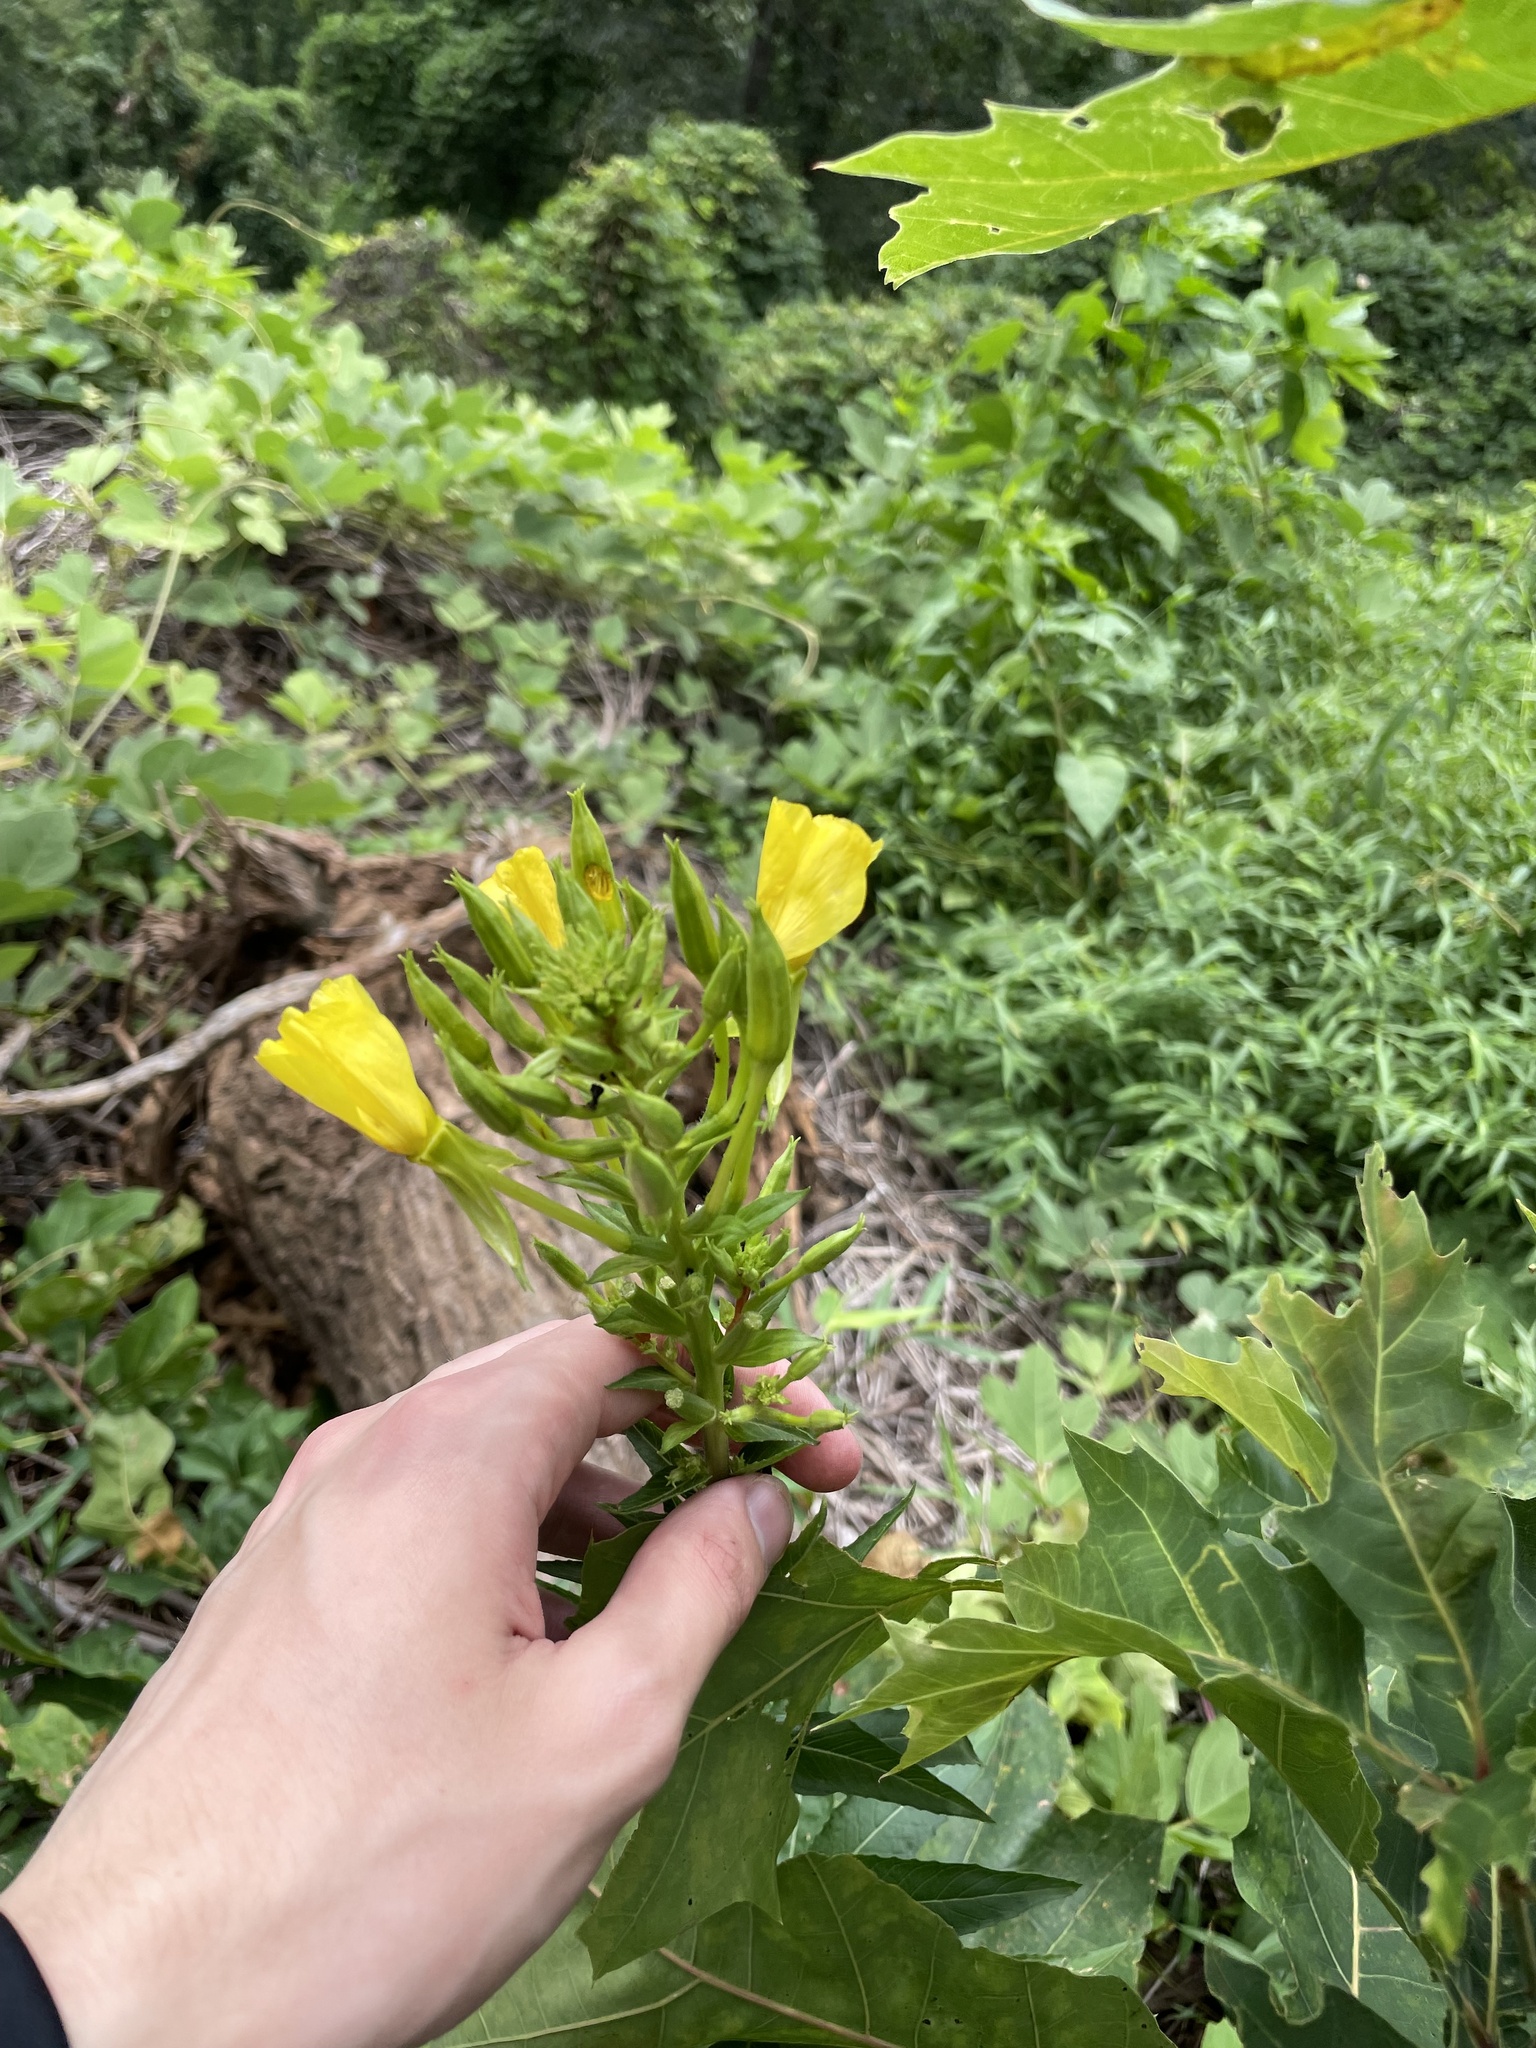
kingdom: Plantae
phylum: Tracheophyta
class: Magnoliopsida
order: Myrtales
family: Onagraceae
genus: Oenothera
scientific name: Oenothera nutans
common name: Nodding evening-primrose
